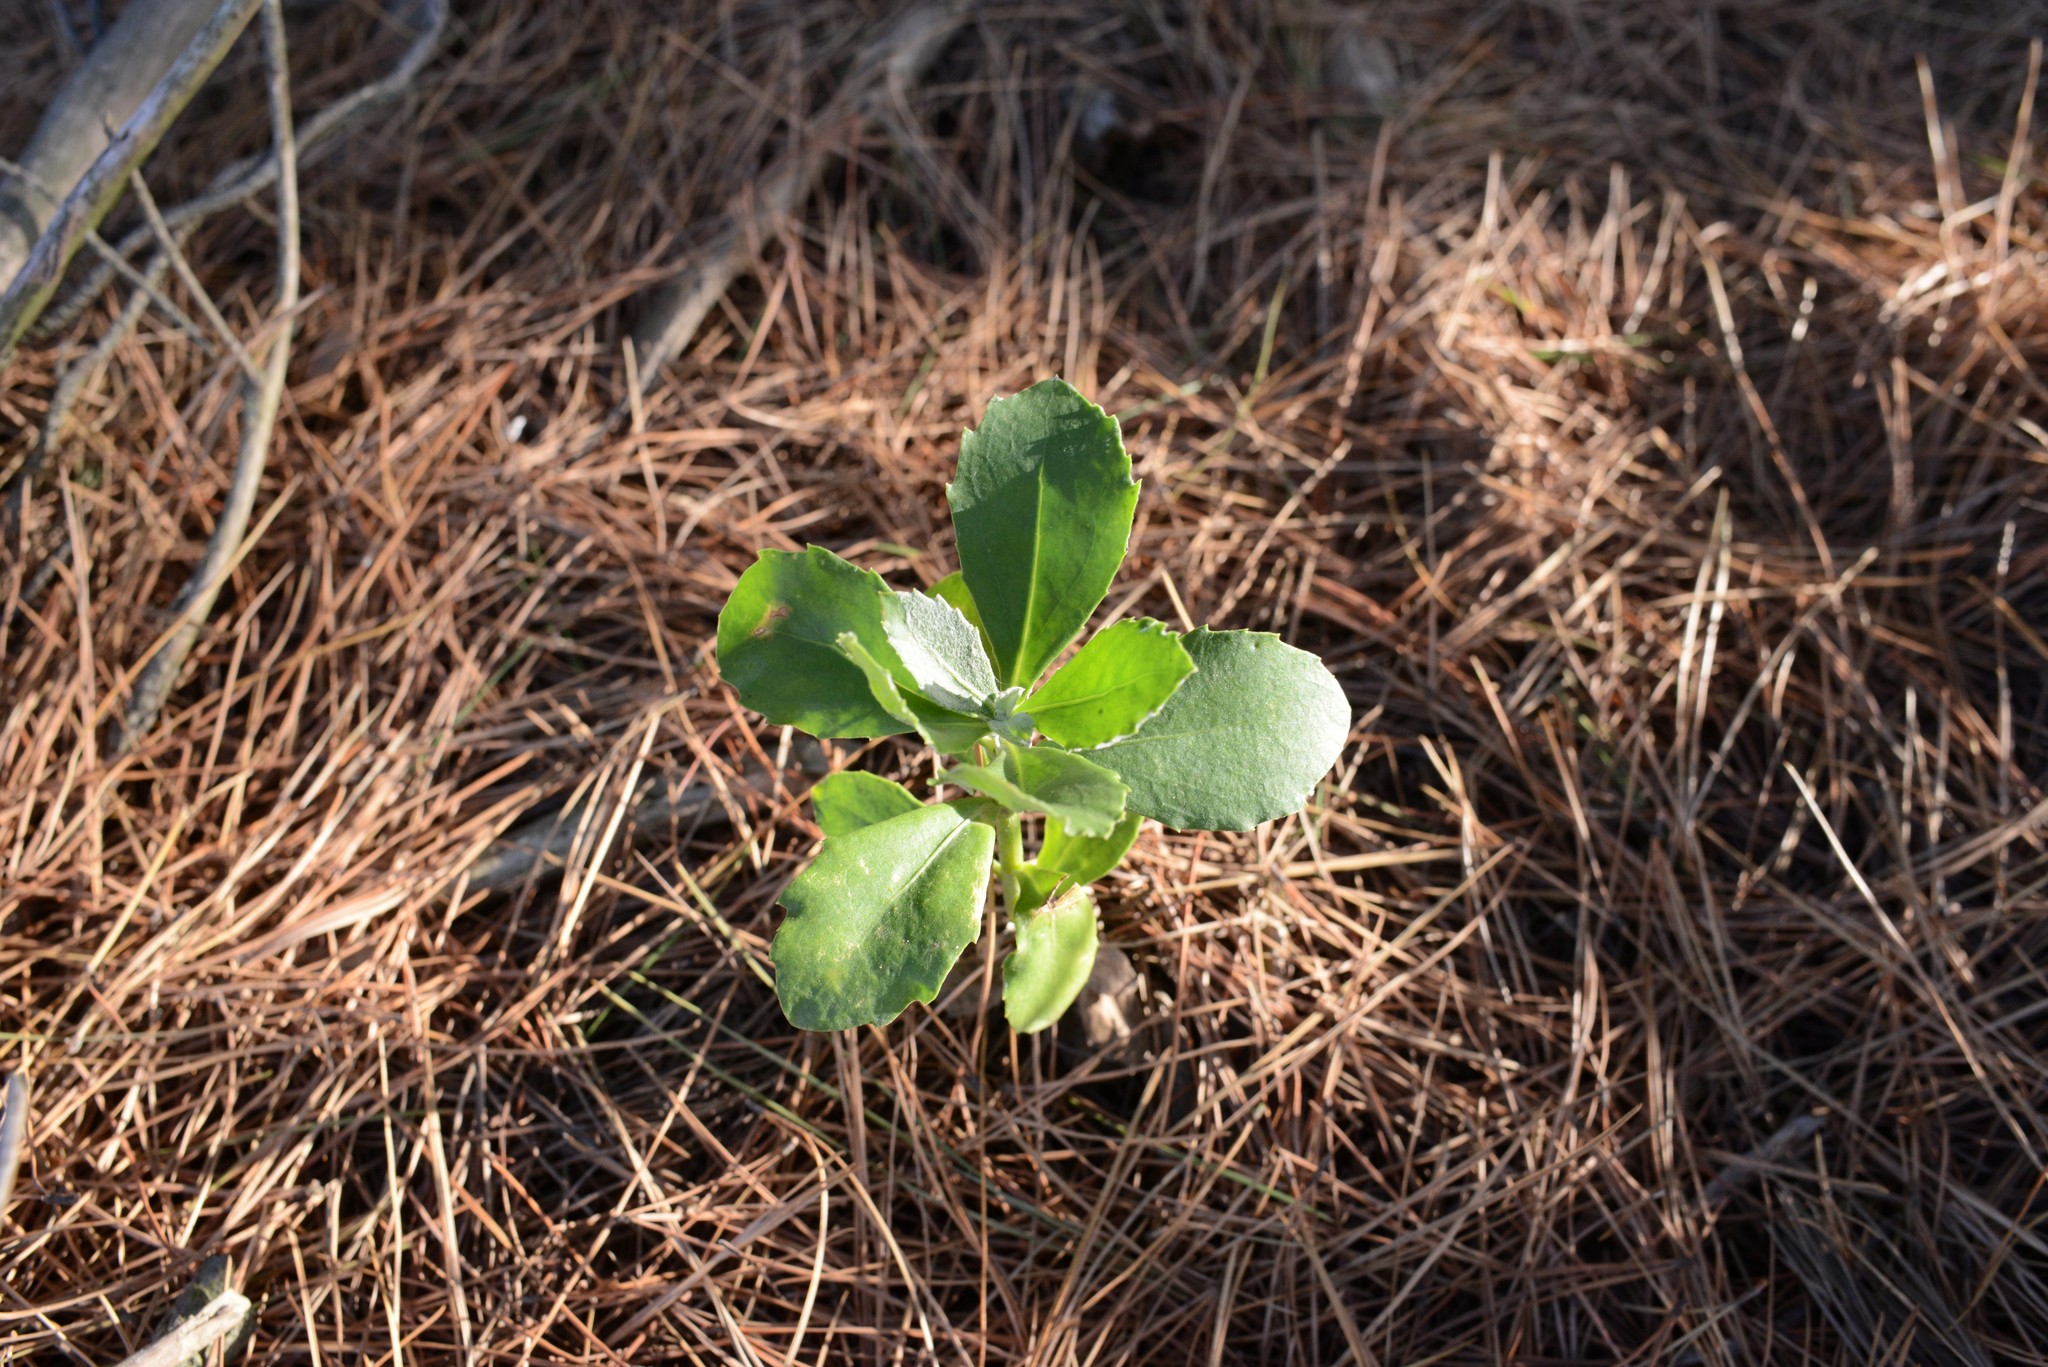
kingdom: Plantae
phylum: Tracheophyta
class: Magnoliopsida
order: Asterales
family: Asteraceae
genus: Osteospermum
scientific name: Osteospermum moniliferum
